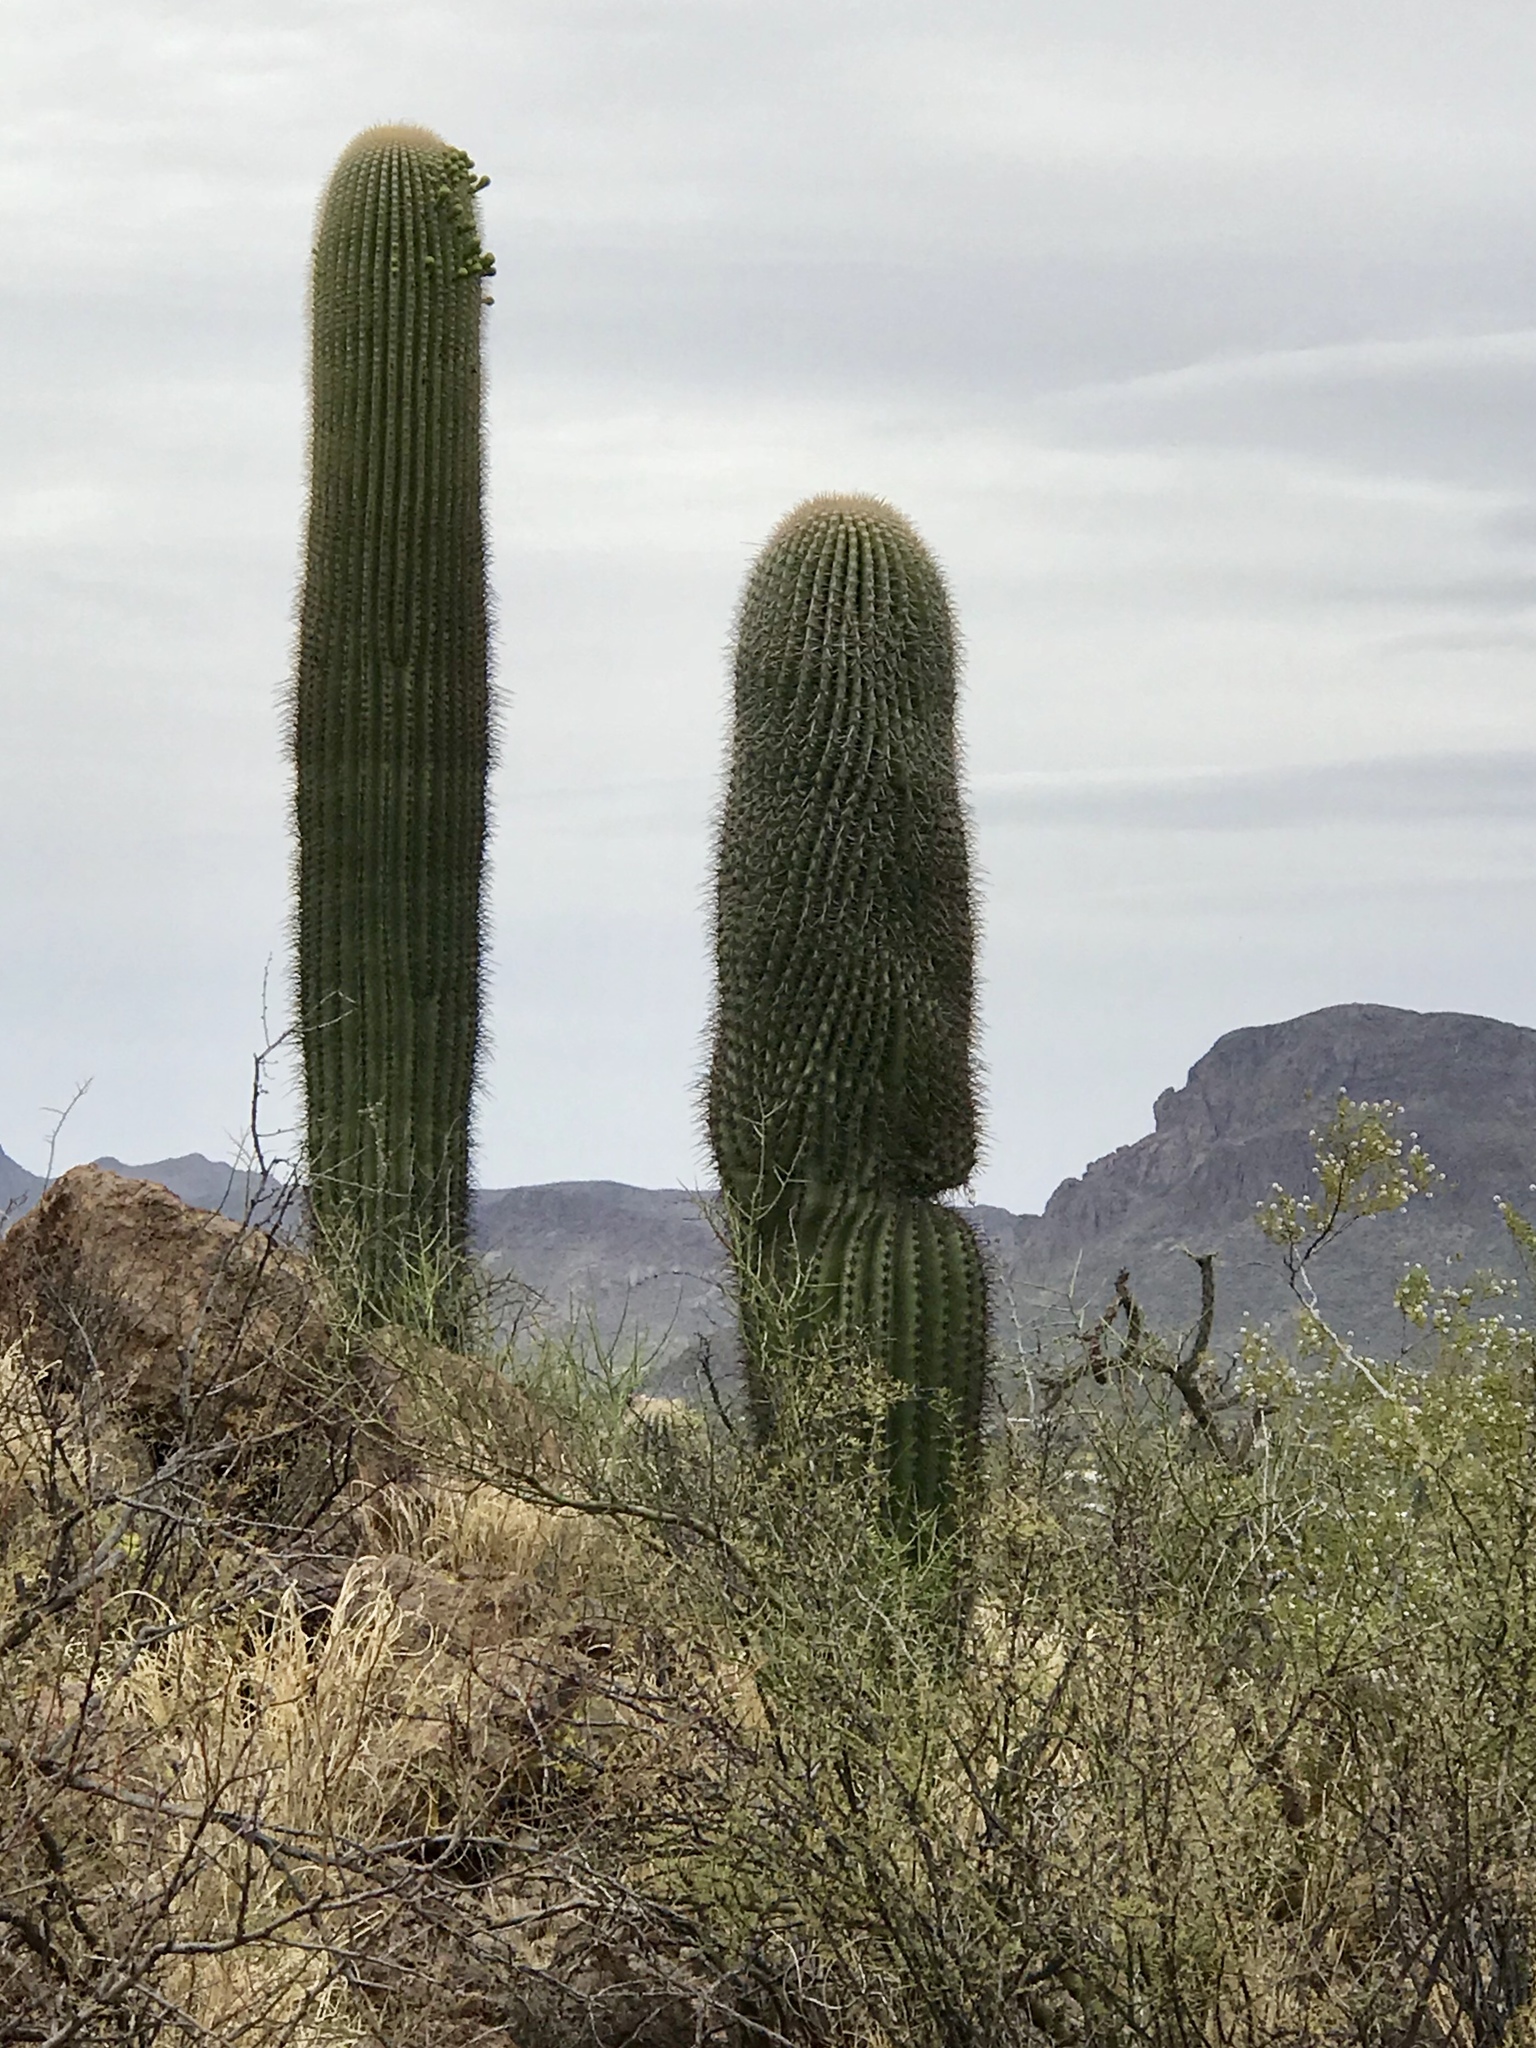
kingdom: Plantae
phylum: Tracheophyta
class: Magnoliopsida
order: Caryophyllales
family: Cactaceae
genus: Carnegiea
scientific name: Carnegiea gigantea
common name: Saguaro
